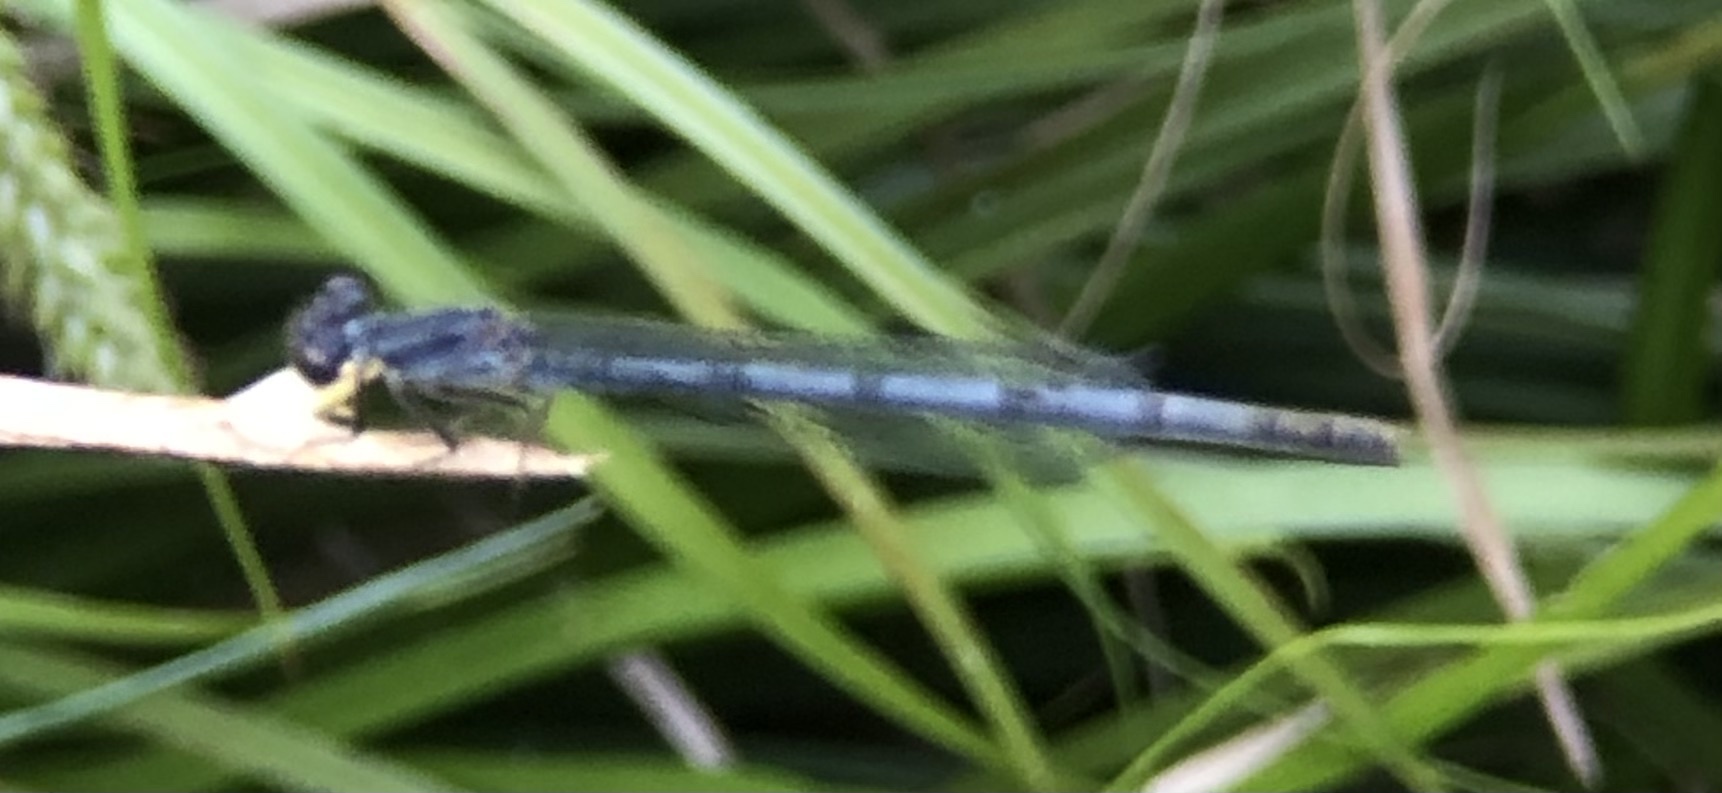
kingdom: Animalia
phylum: Arthropoda
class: Insecta
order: Odonata
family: Coenagrionidae
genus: Ischnura
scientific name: Ischnura posita
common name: Fragile forktail
